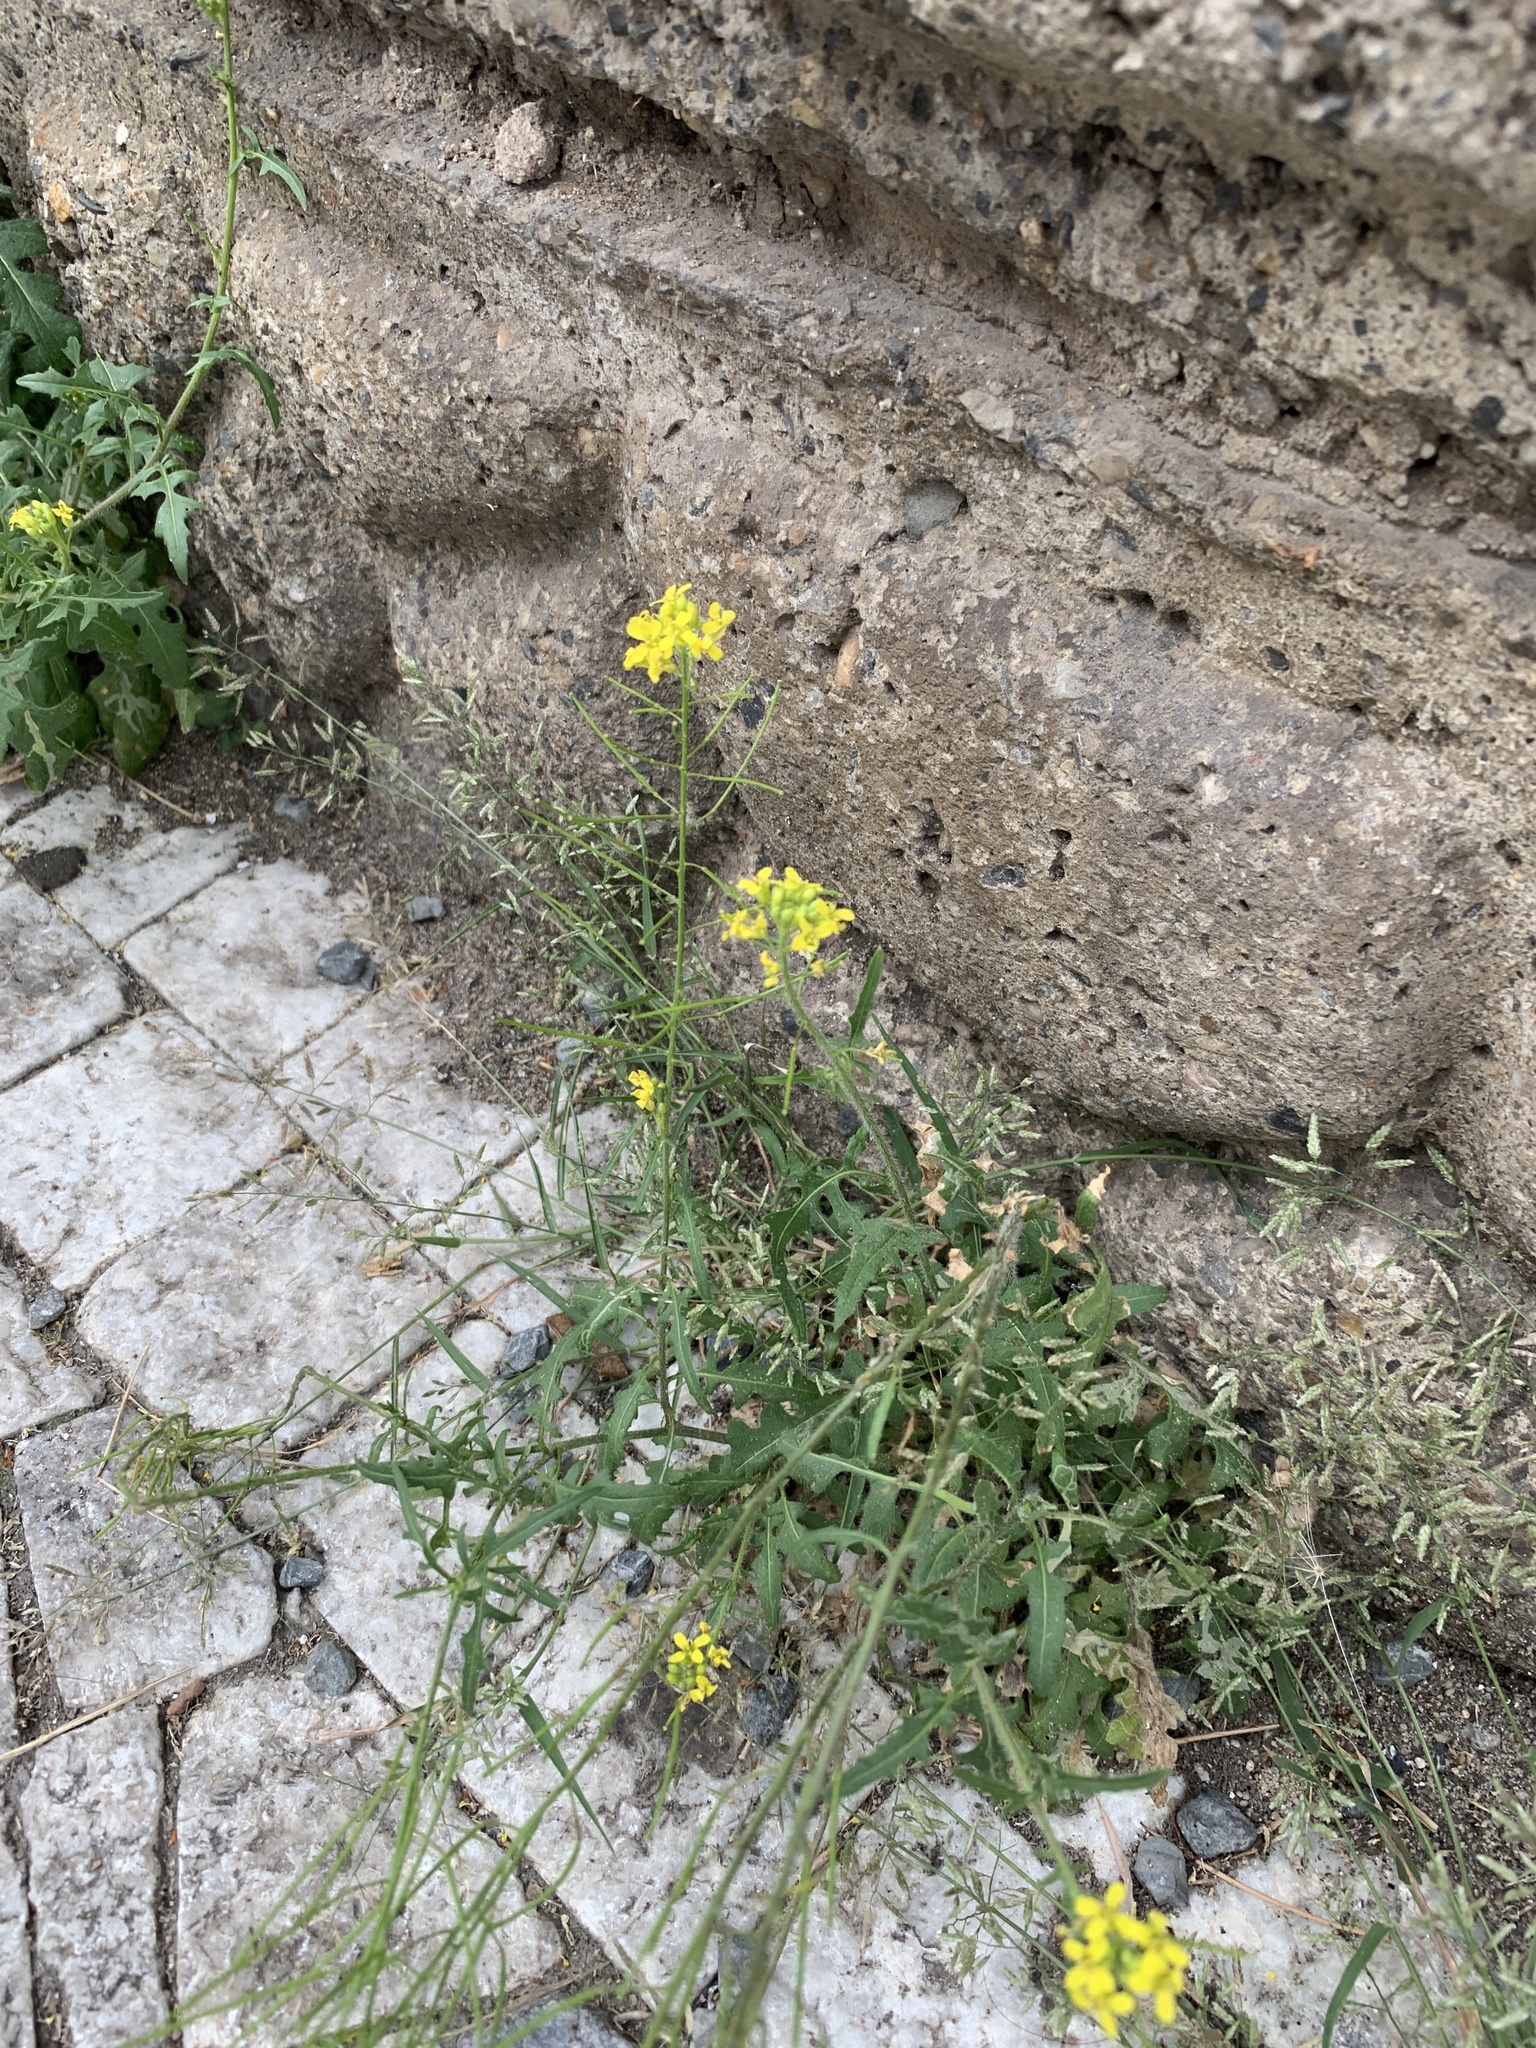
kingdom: Plantae
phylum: Tracheophyta
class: Magnoliopsida
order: Brassicales
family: Brassicaceae
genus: Sisymbrium
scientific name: Sisymbrium loeselii
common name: False london-rocket
